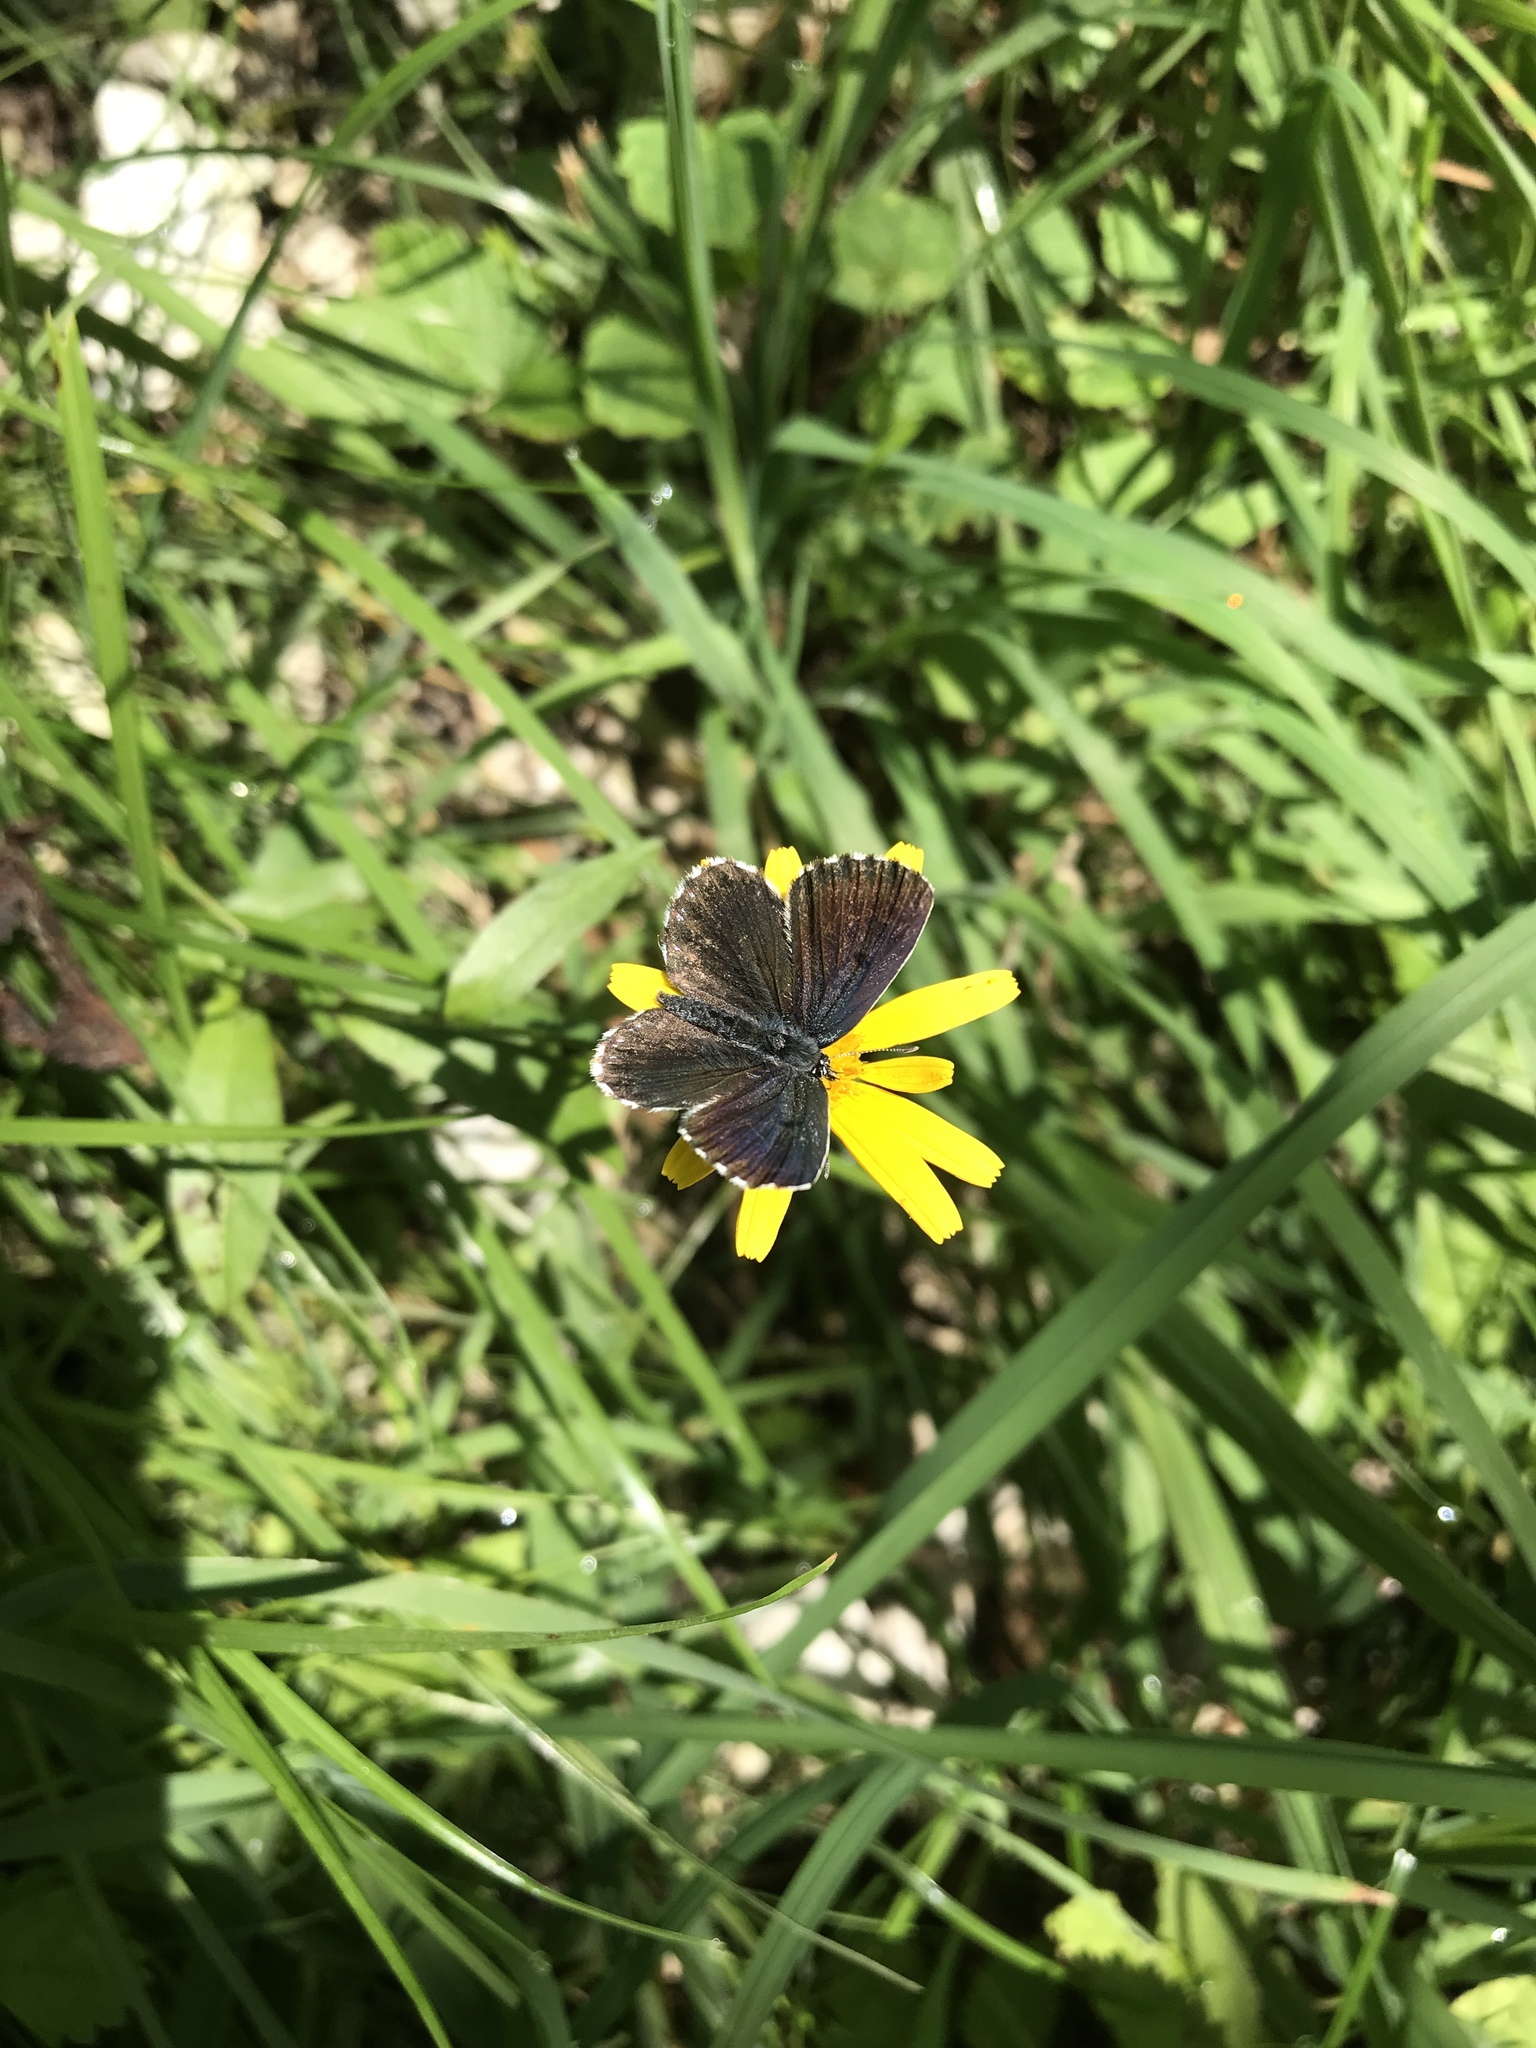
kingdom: Animalia
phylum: Arthropoda
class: Insecta
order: Lepidoptera
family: Lycaenidae
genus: Scolitantides
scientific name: Scolitantides orion
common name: Chequered blue
